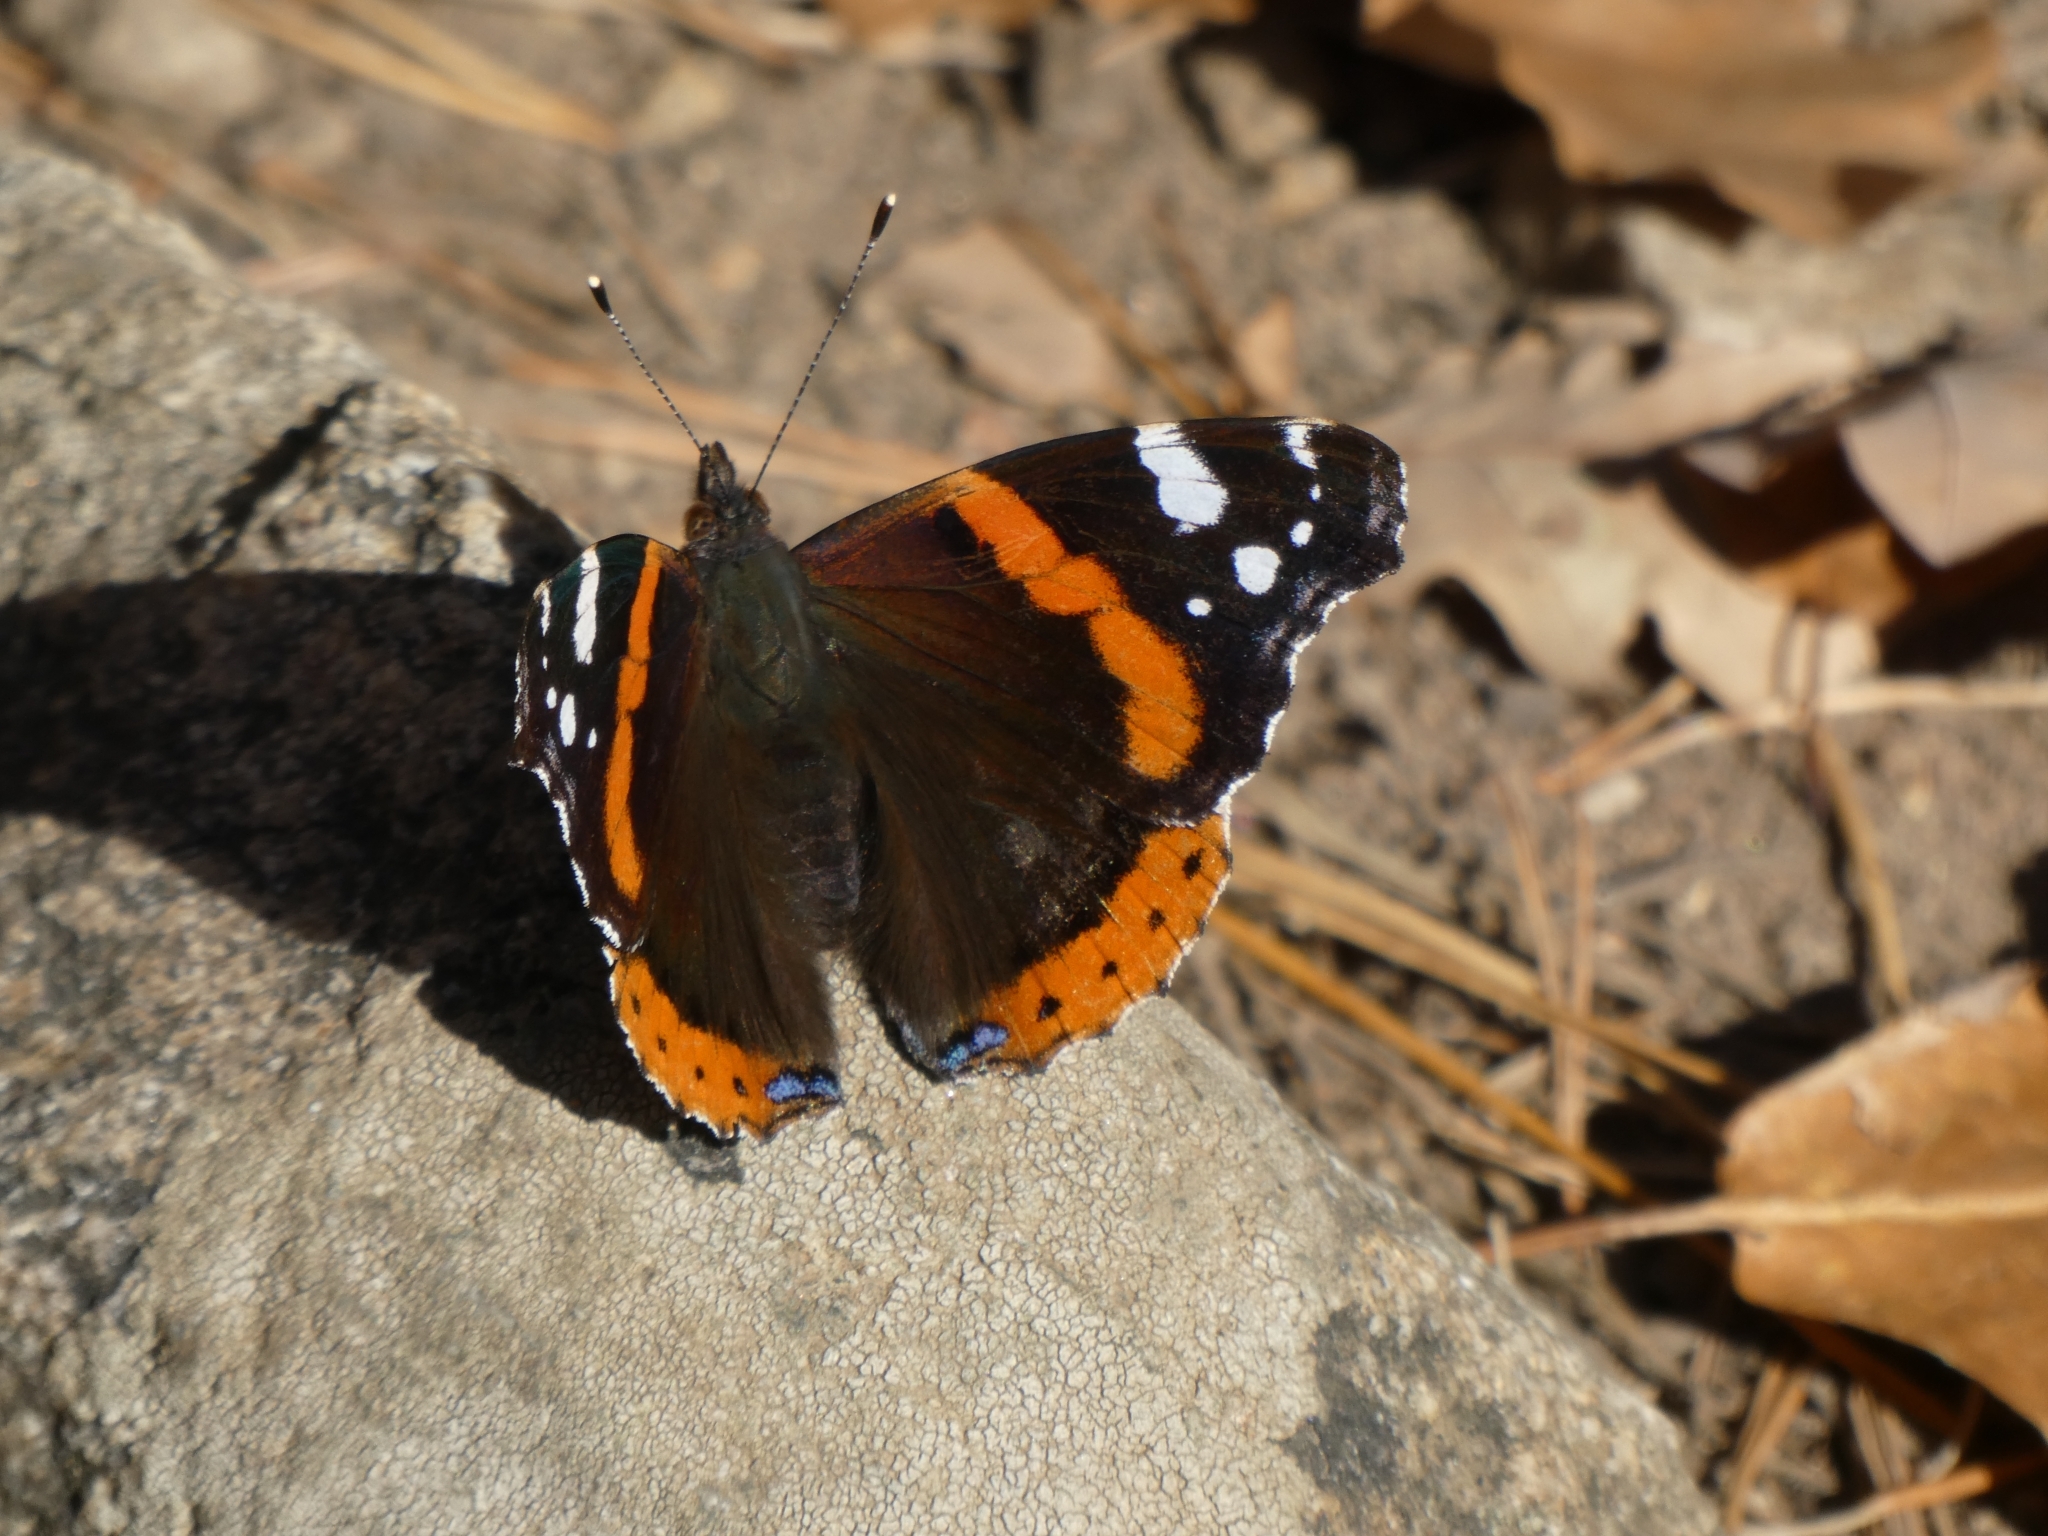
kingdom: Animalia
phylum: Arthropoda
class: Insecta
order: Lepidoptera
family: Nymphalidae
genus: Vanessa
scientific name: Vanessa atalanta
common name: Red admiral
